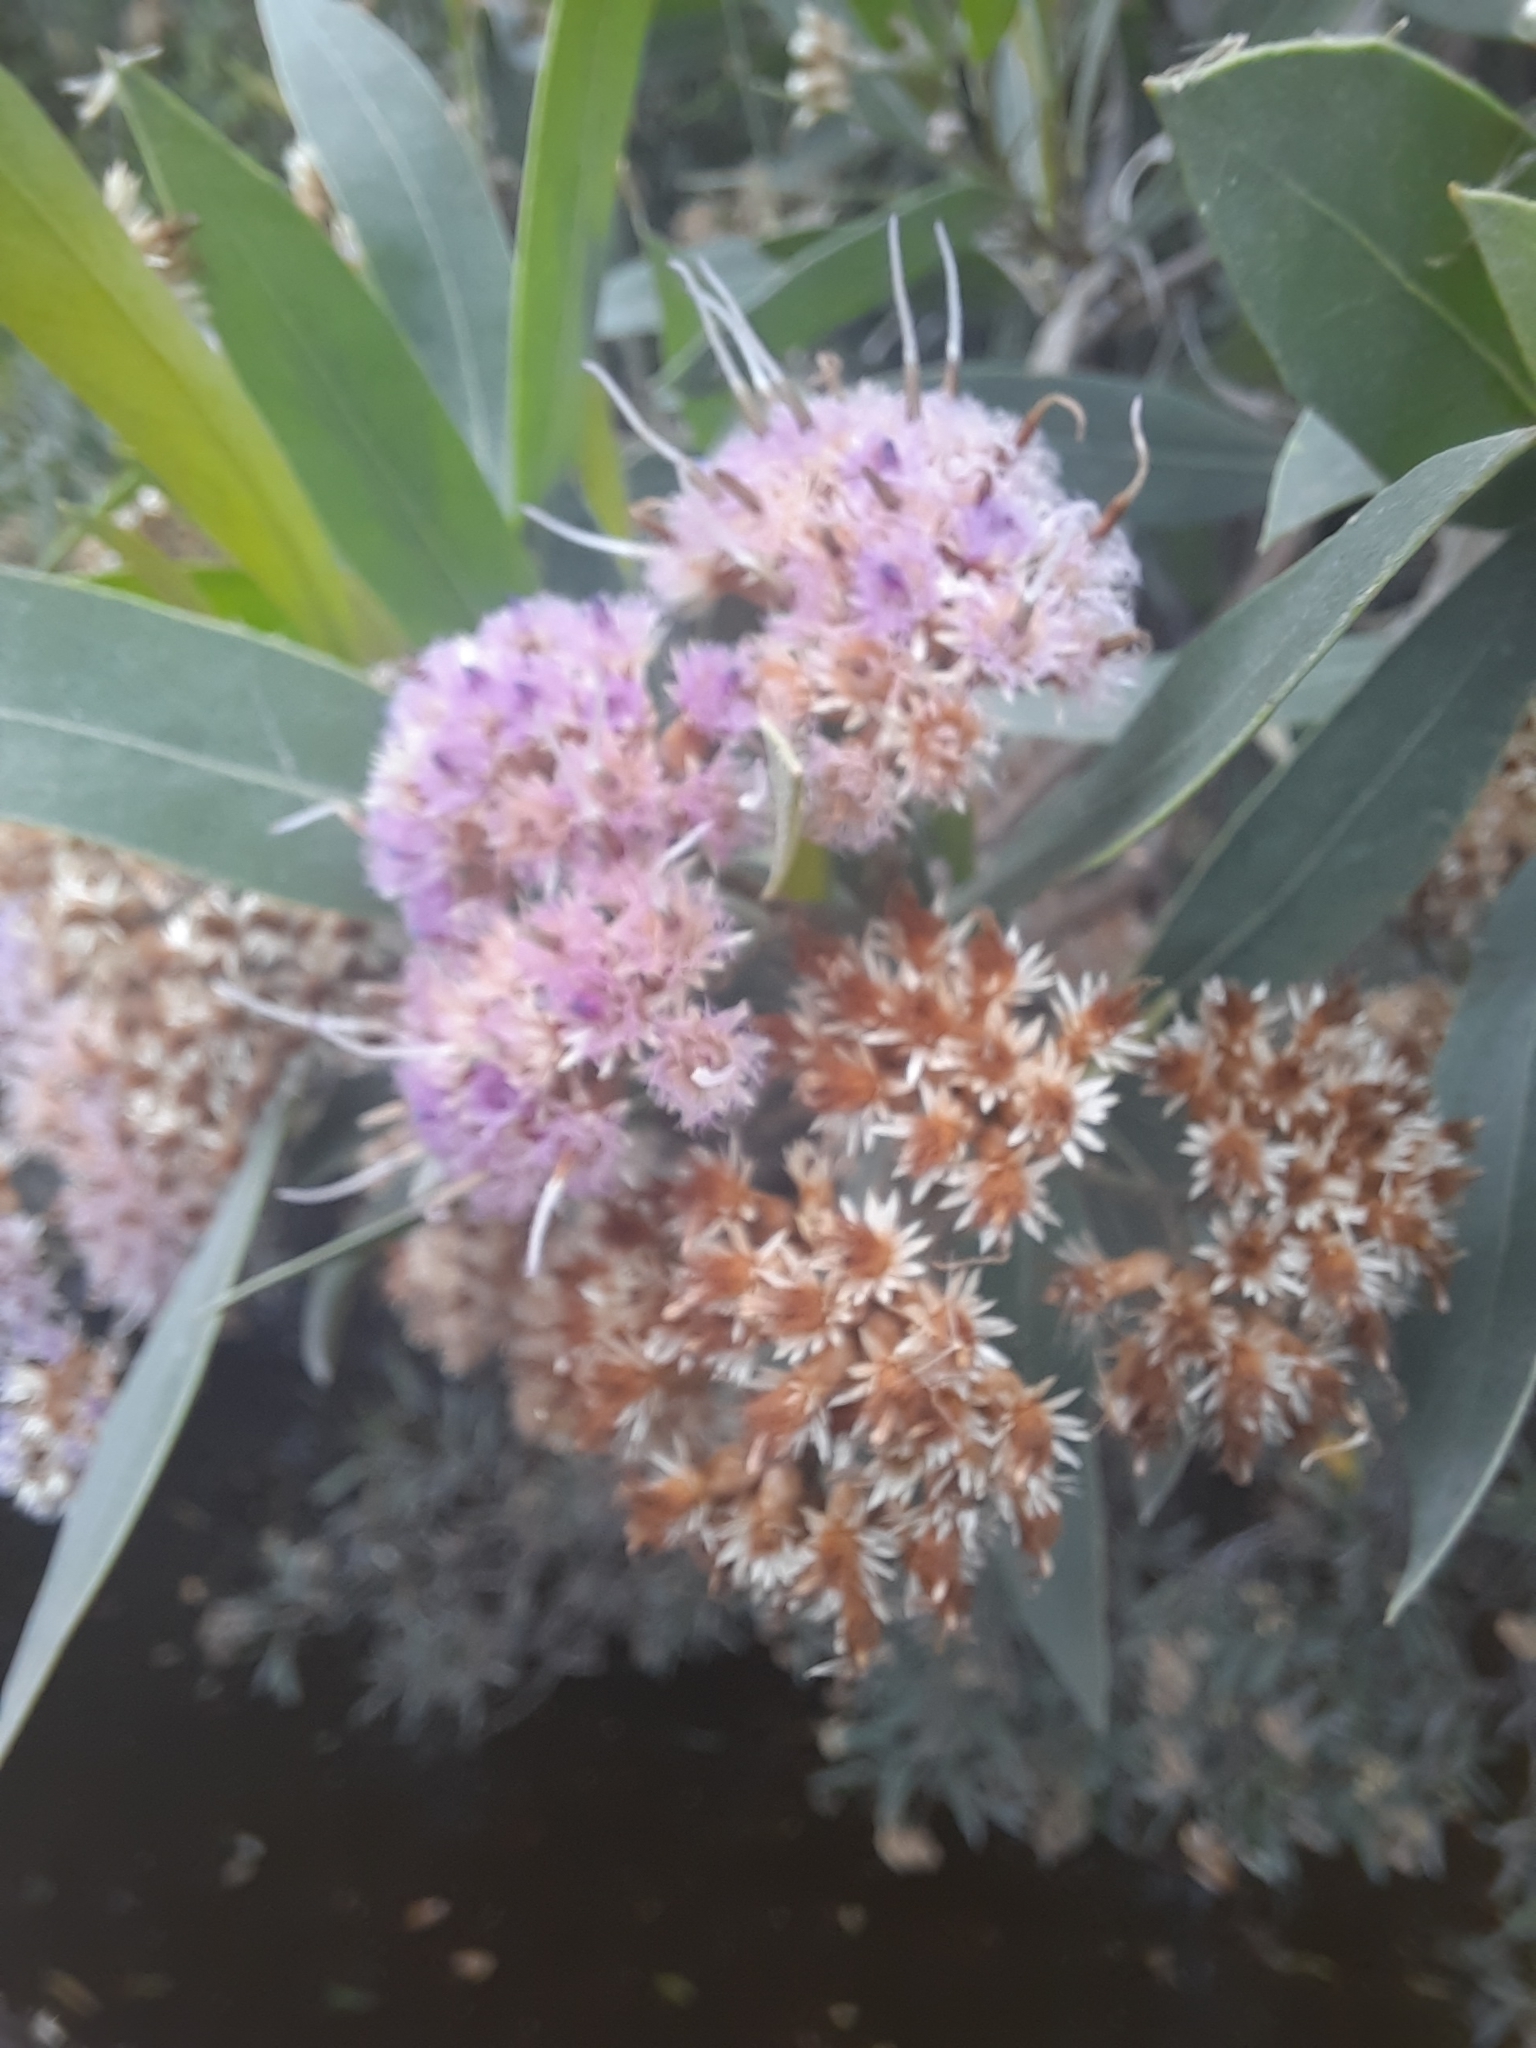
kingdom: Plantae
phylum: Tracheophyta
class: Magnoliopsida
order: Asterales
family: Asteraceae
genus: Tessaria
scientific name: Tessaria integrifolia
